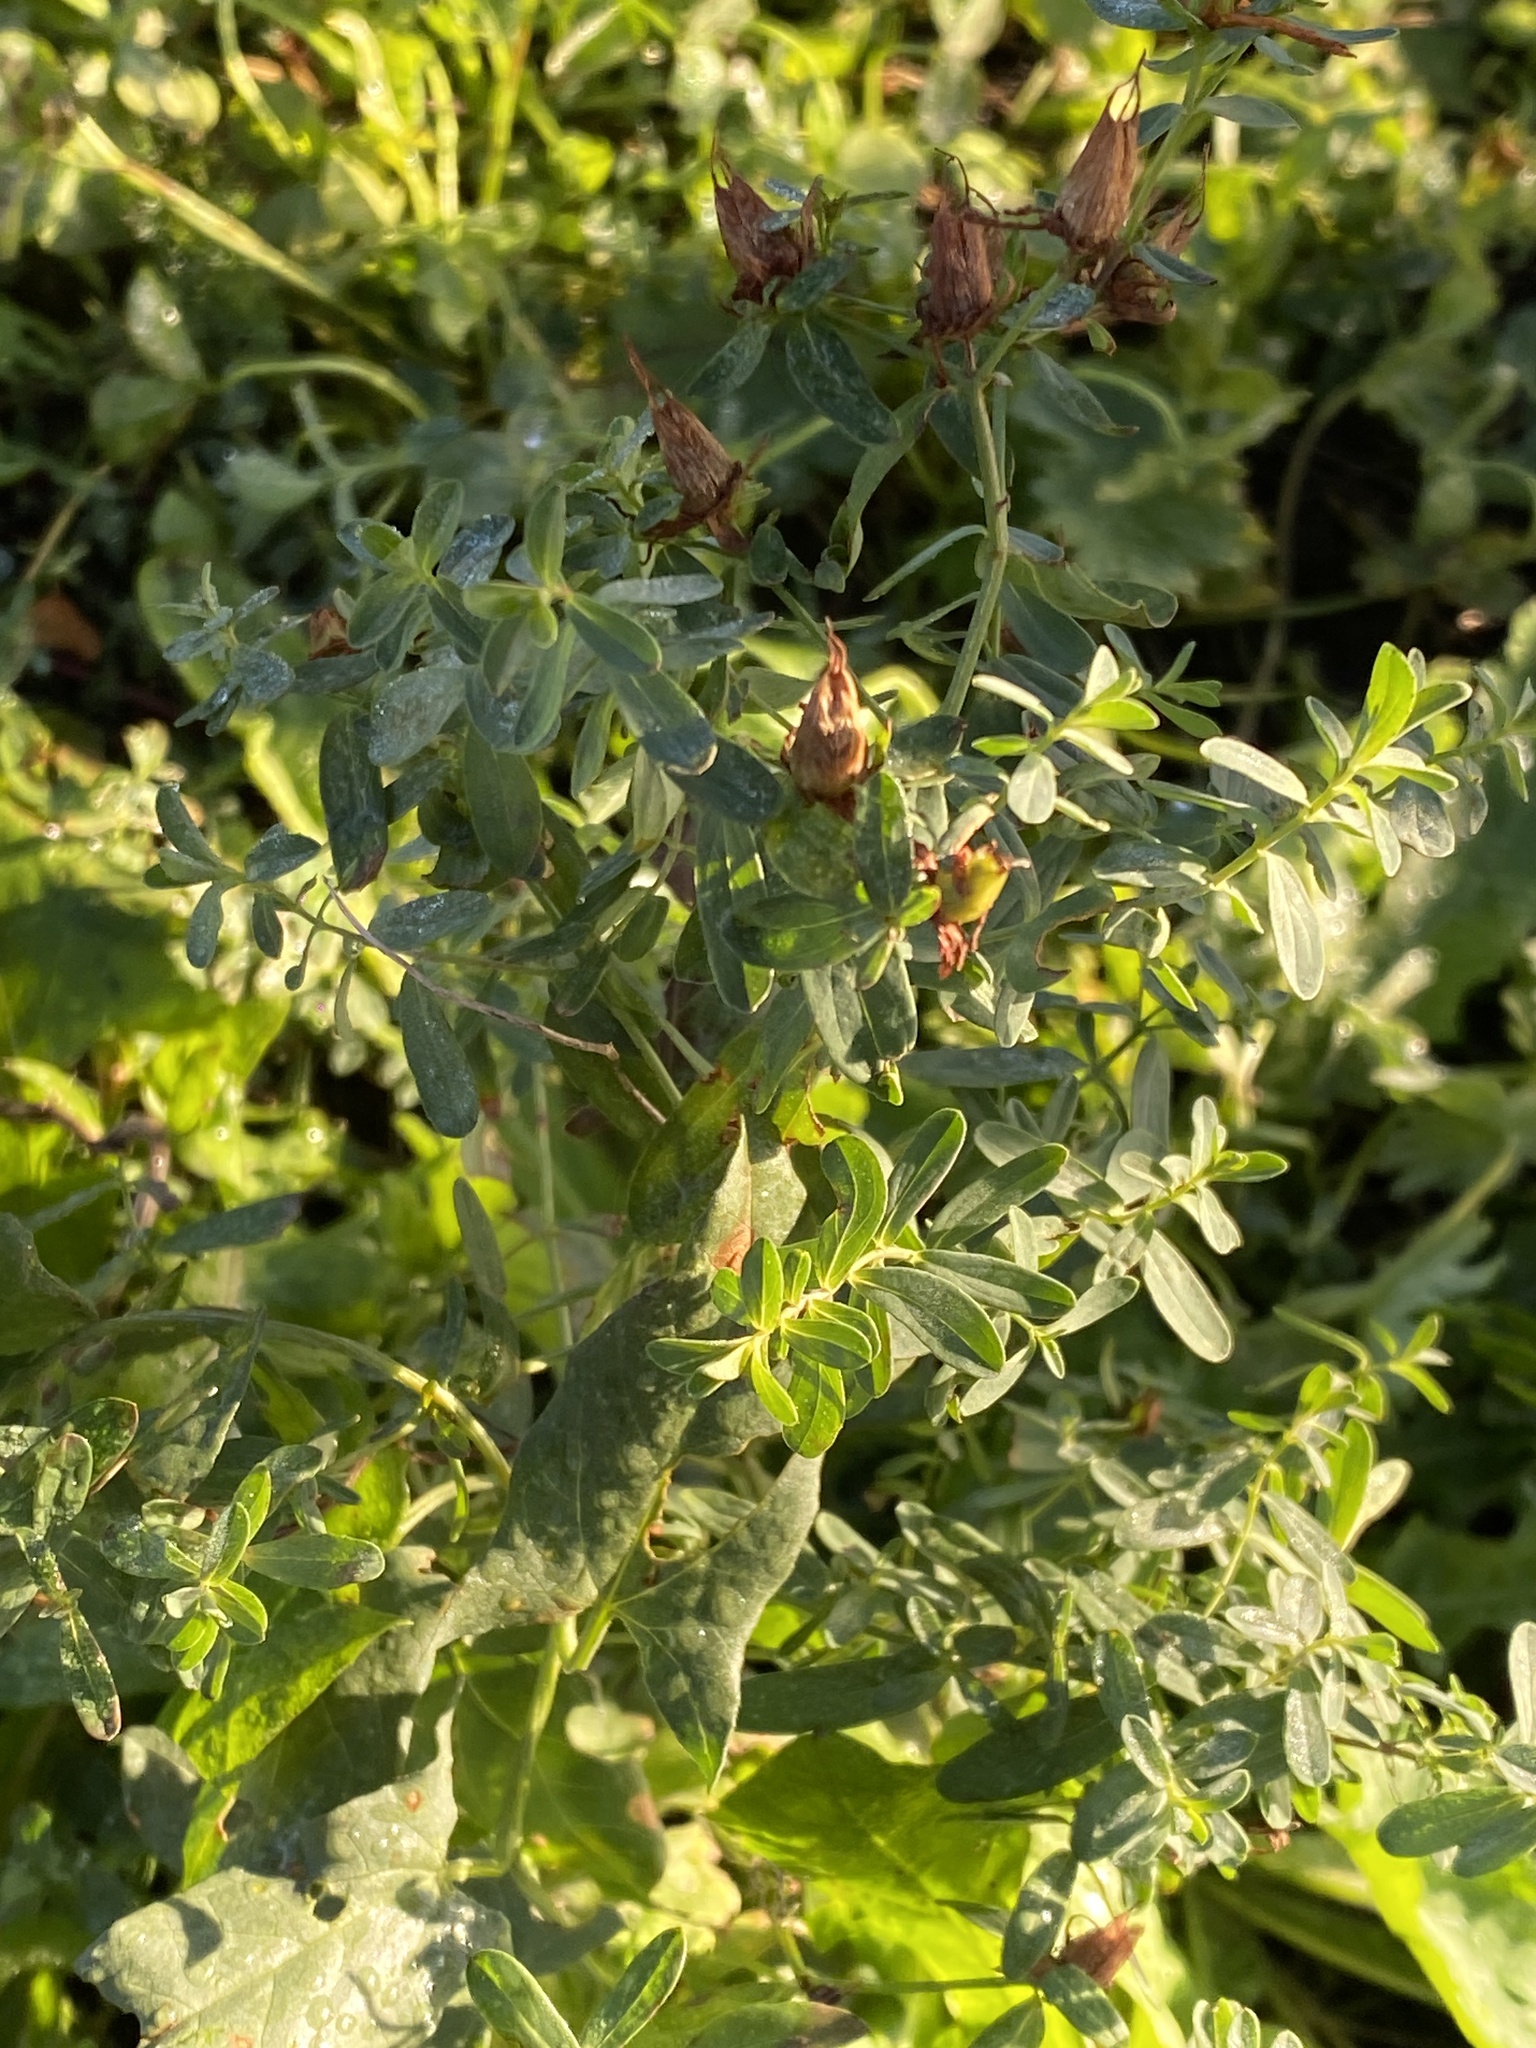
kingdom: Plantae
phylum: Tracheophyta
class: Magnoliopsida
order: Malpighiales
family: Hypericaceae
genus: Hypericum
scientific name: Hypericum perforatum
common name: Common st. johnswort
